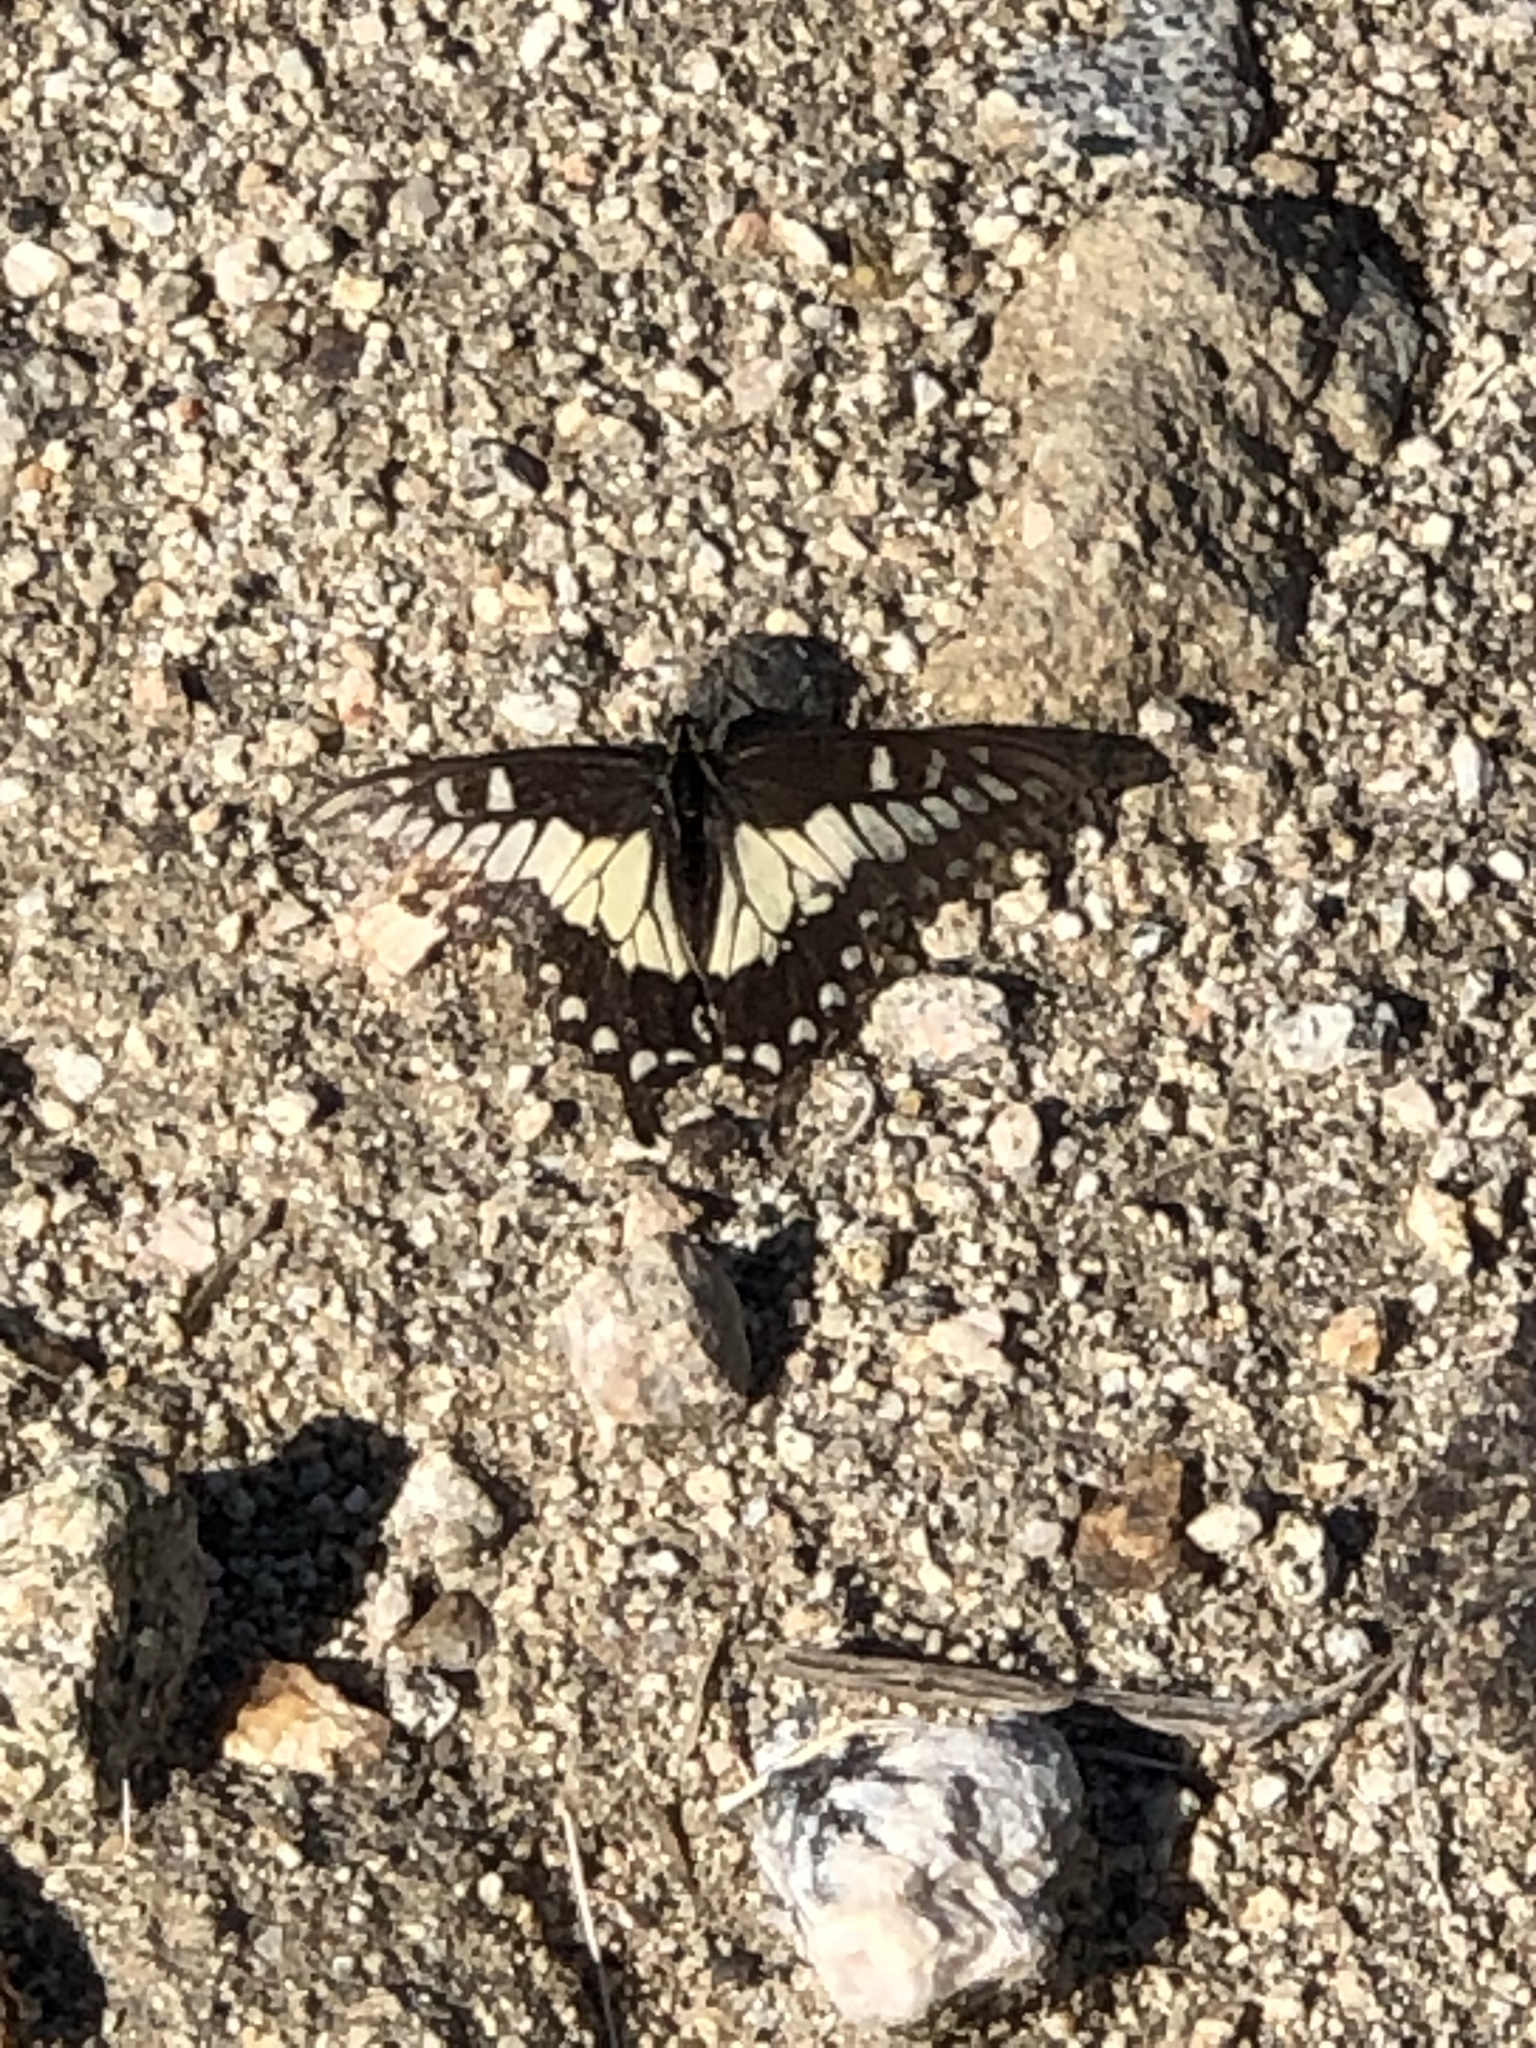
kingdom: Animalia
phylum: Arthropoda
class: Insecta
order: Lepidoptera
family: Papilionidae
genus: Papilio
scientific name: Papilio polyxenes
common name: Black swallowtail
